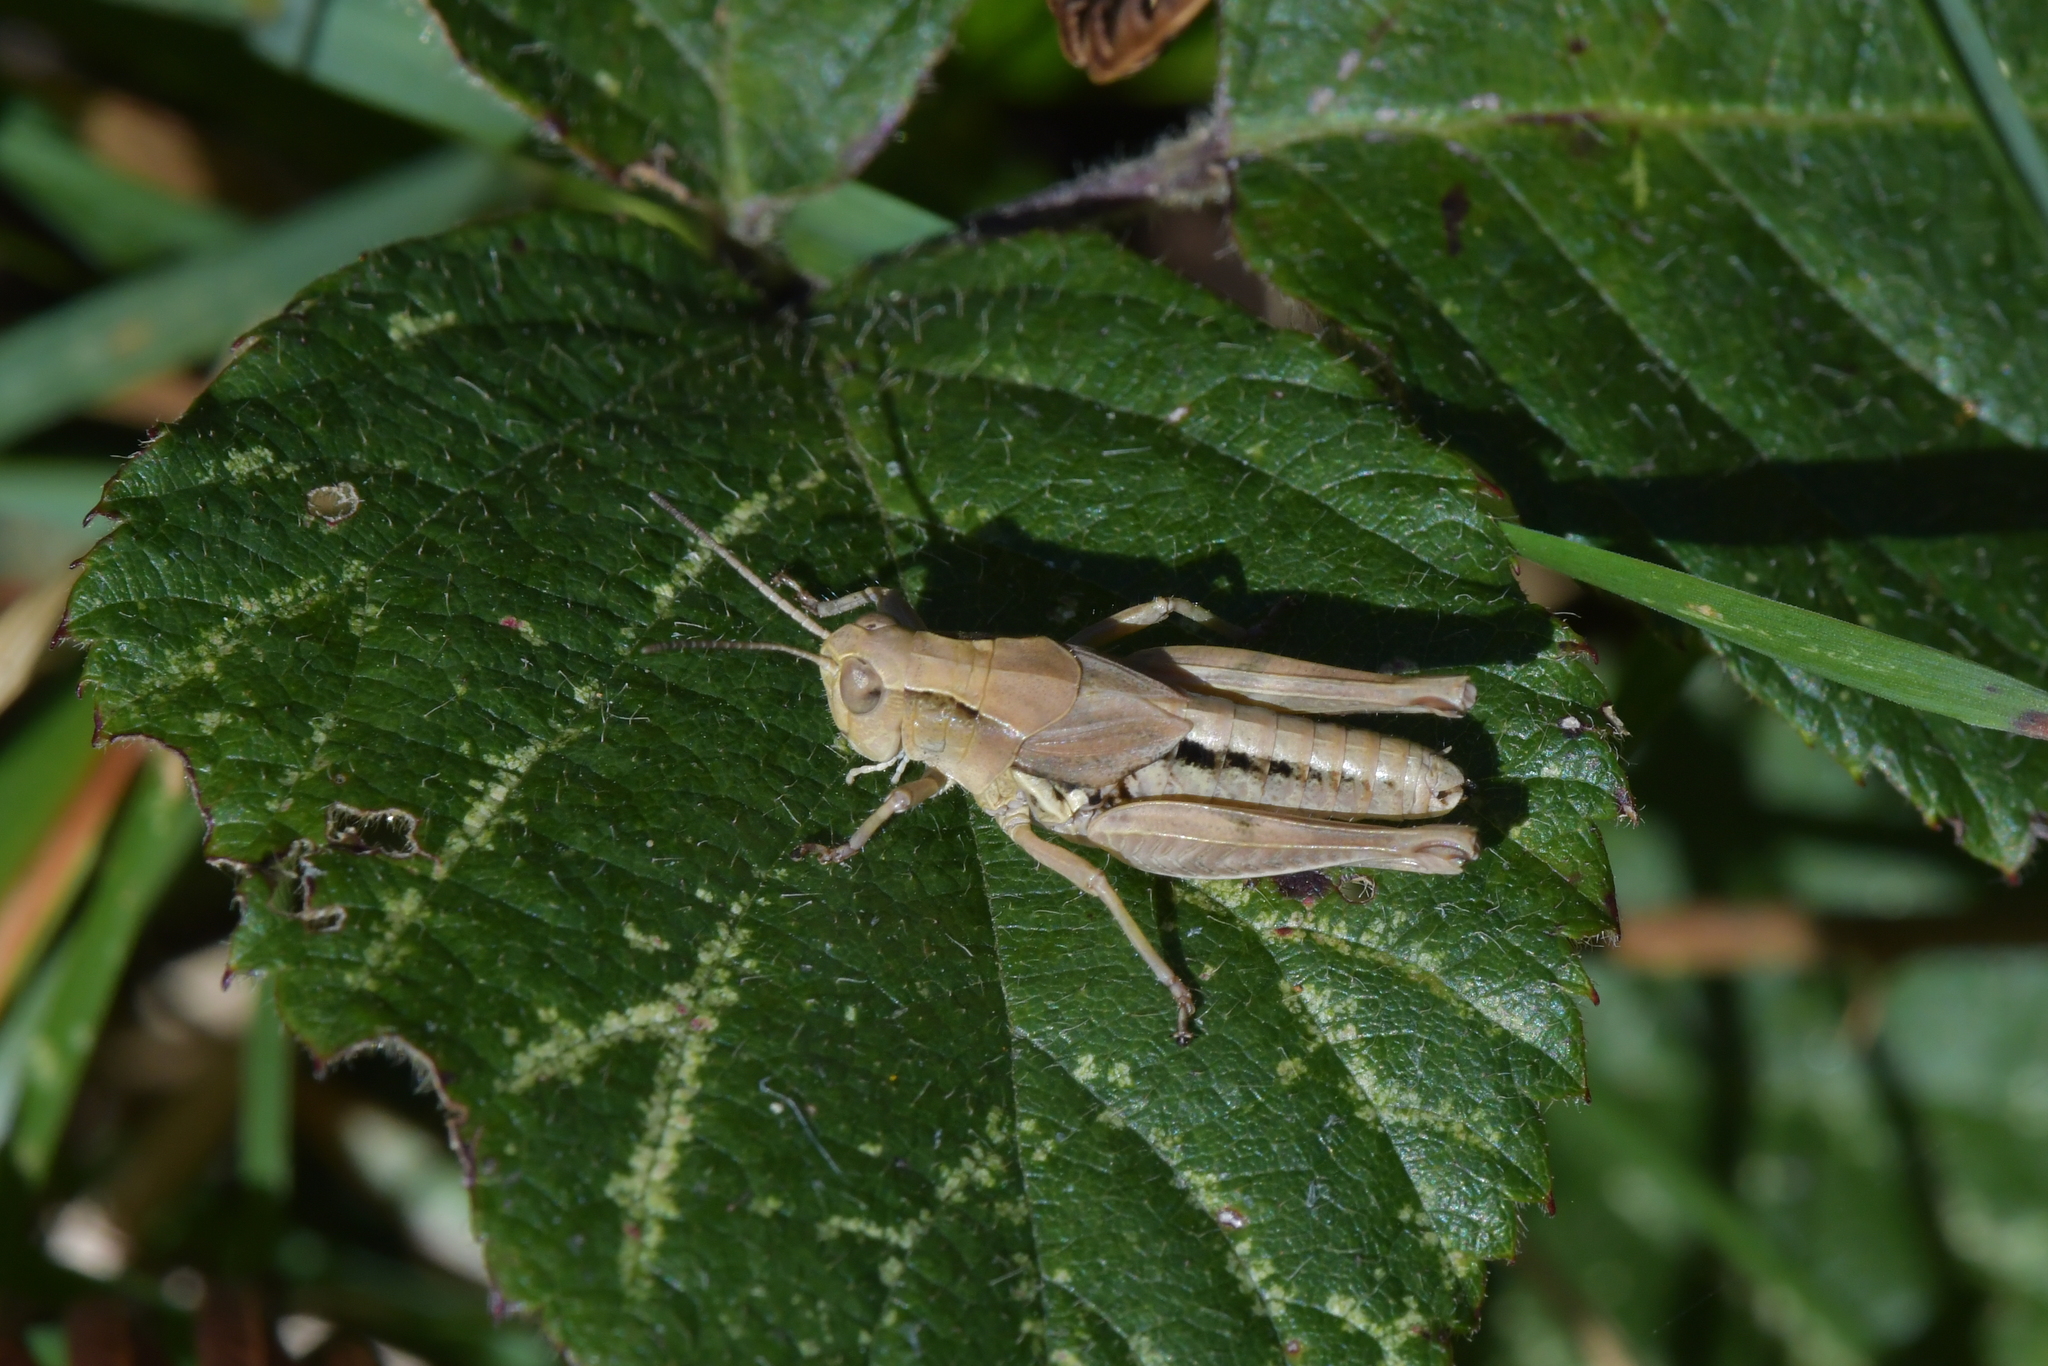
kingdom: Animalia
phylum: Arthropoda
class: Insecta
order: Orthoptera
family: Acrididae
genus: Phaulacridium
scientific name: Phaulacridium marginale
